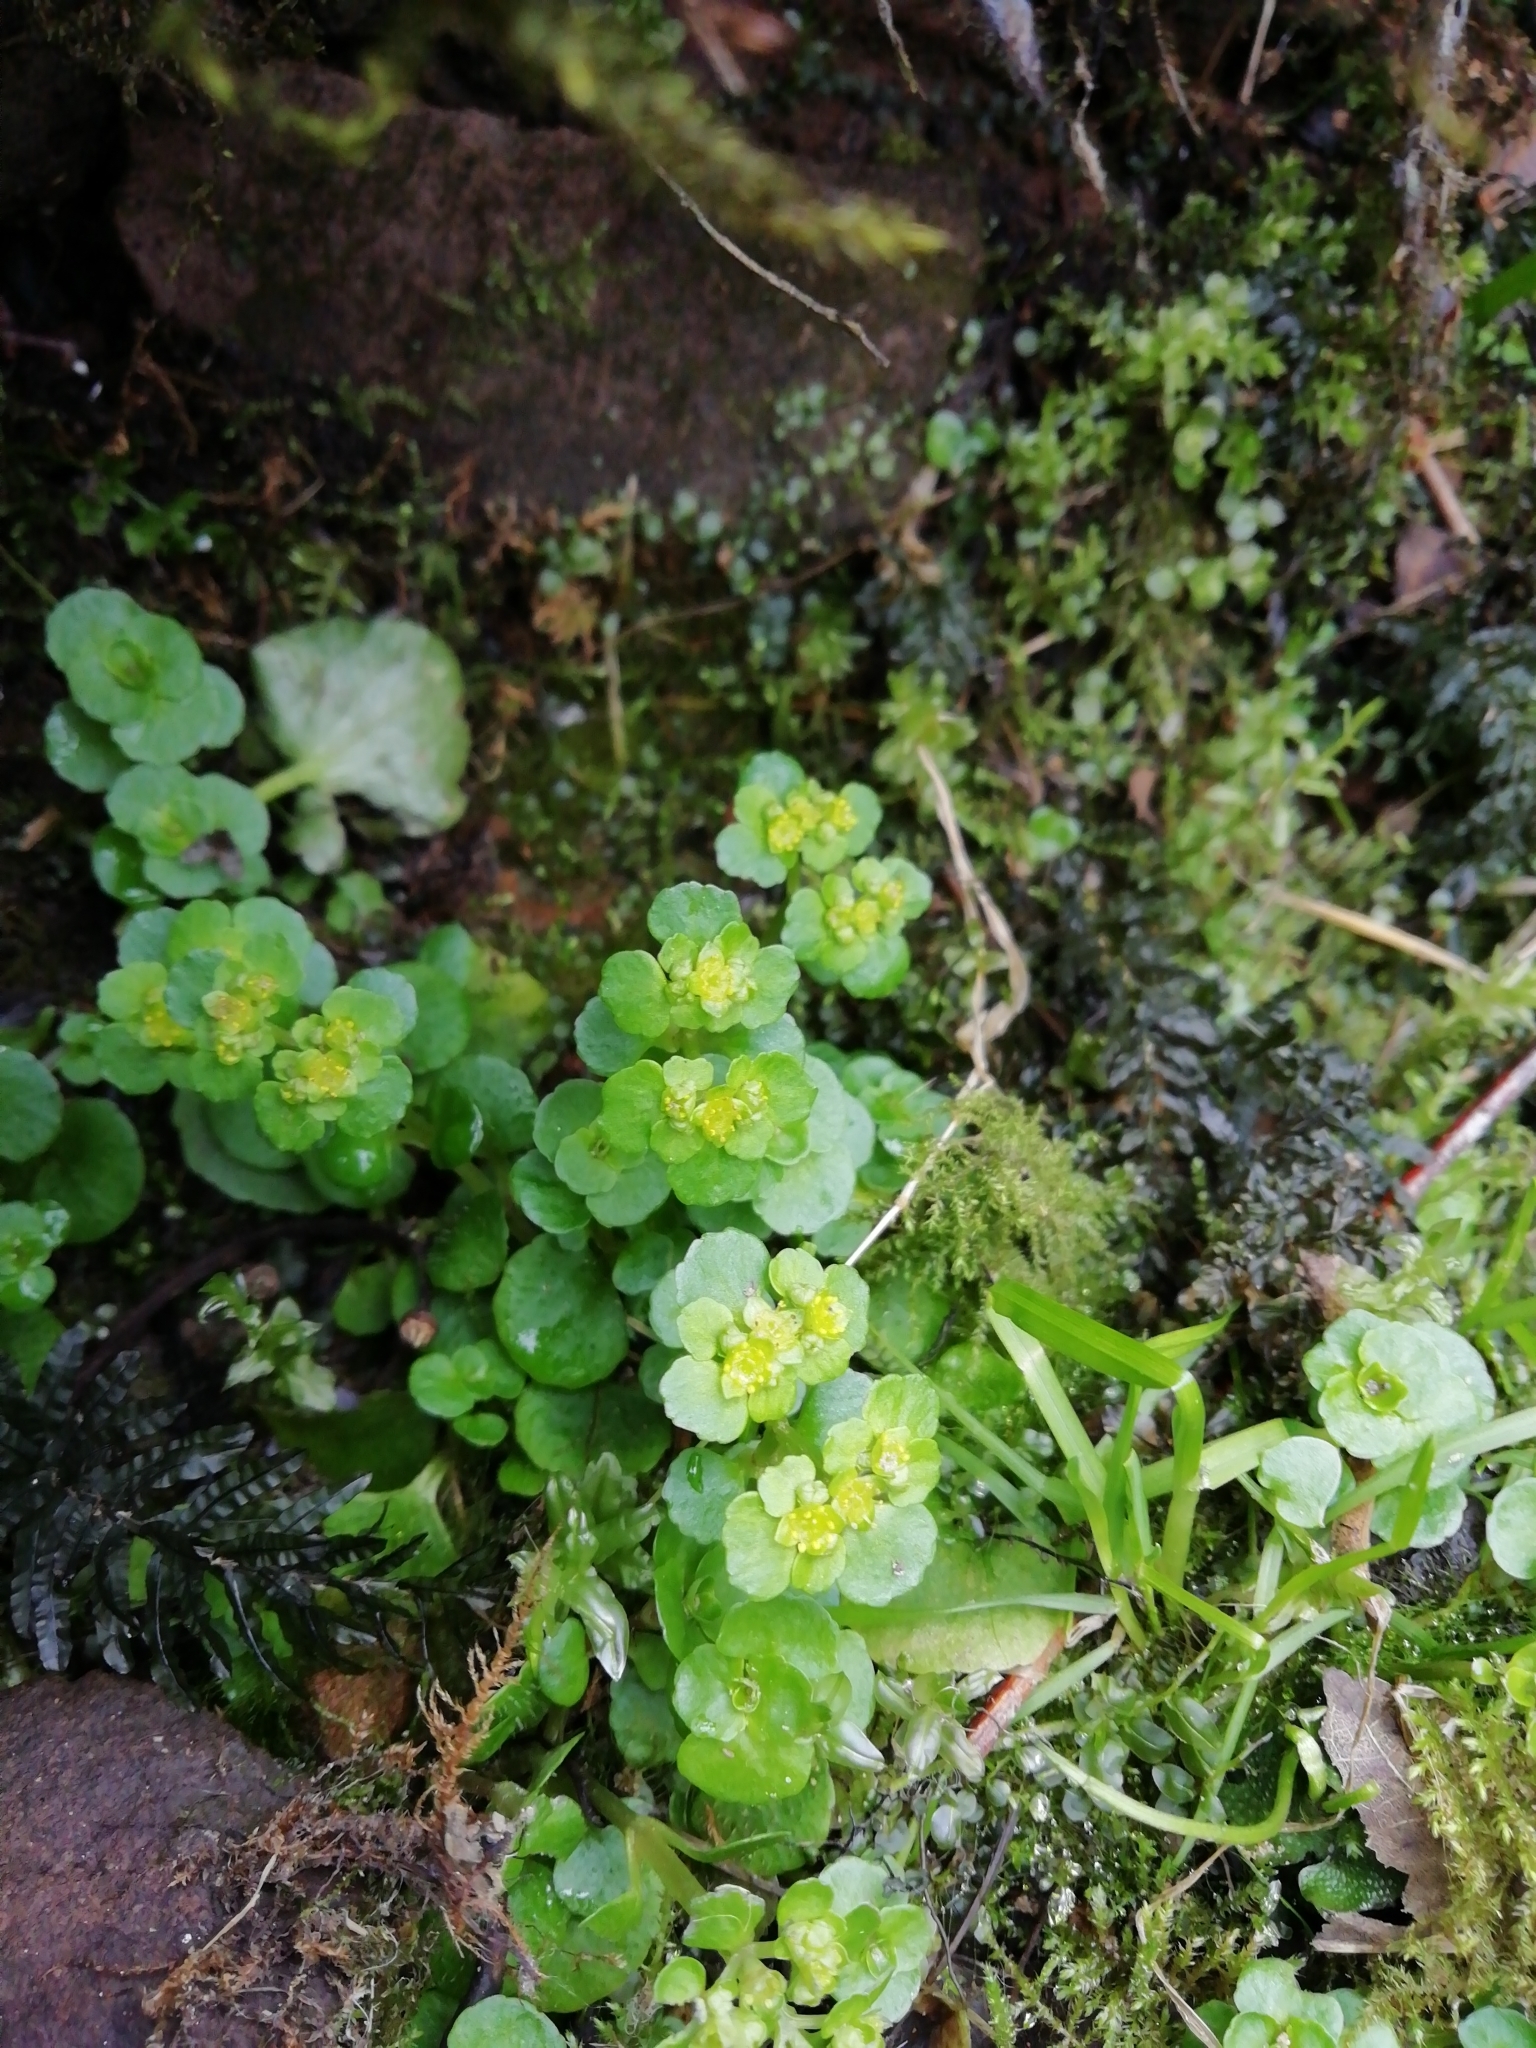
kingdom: Plantae
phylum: Tracheophyta
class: Magnoliopsida
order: Saxifragales
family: Saxifragaceae
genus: Chrysosplenium
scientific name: Chrysosplenium oppositifolium
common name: Opposite-leaved golden-saxifrage
